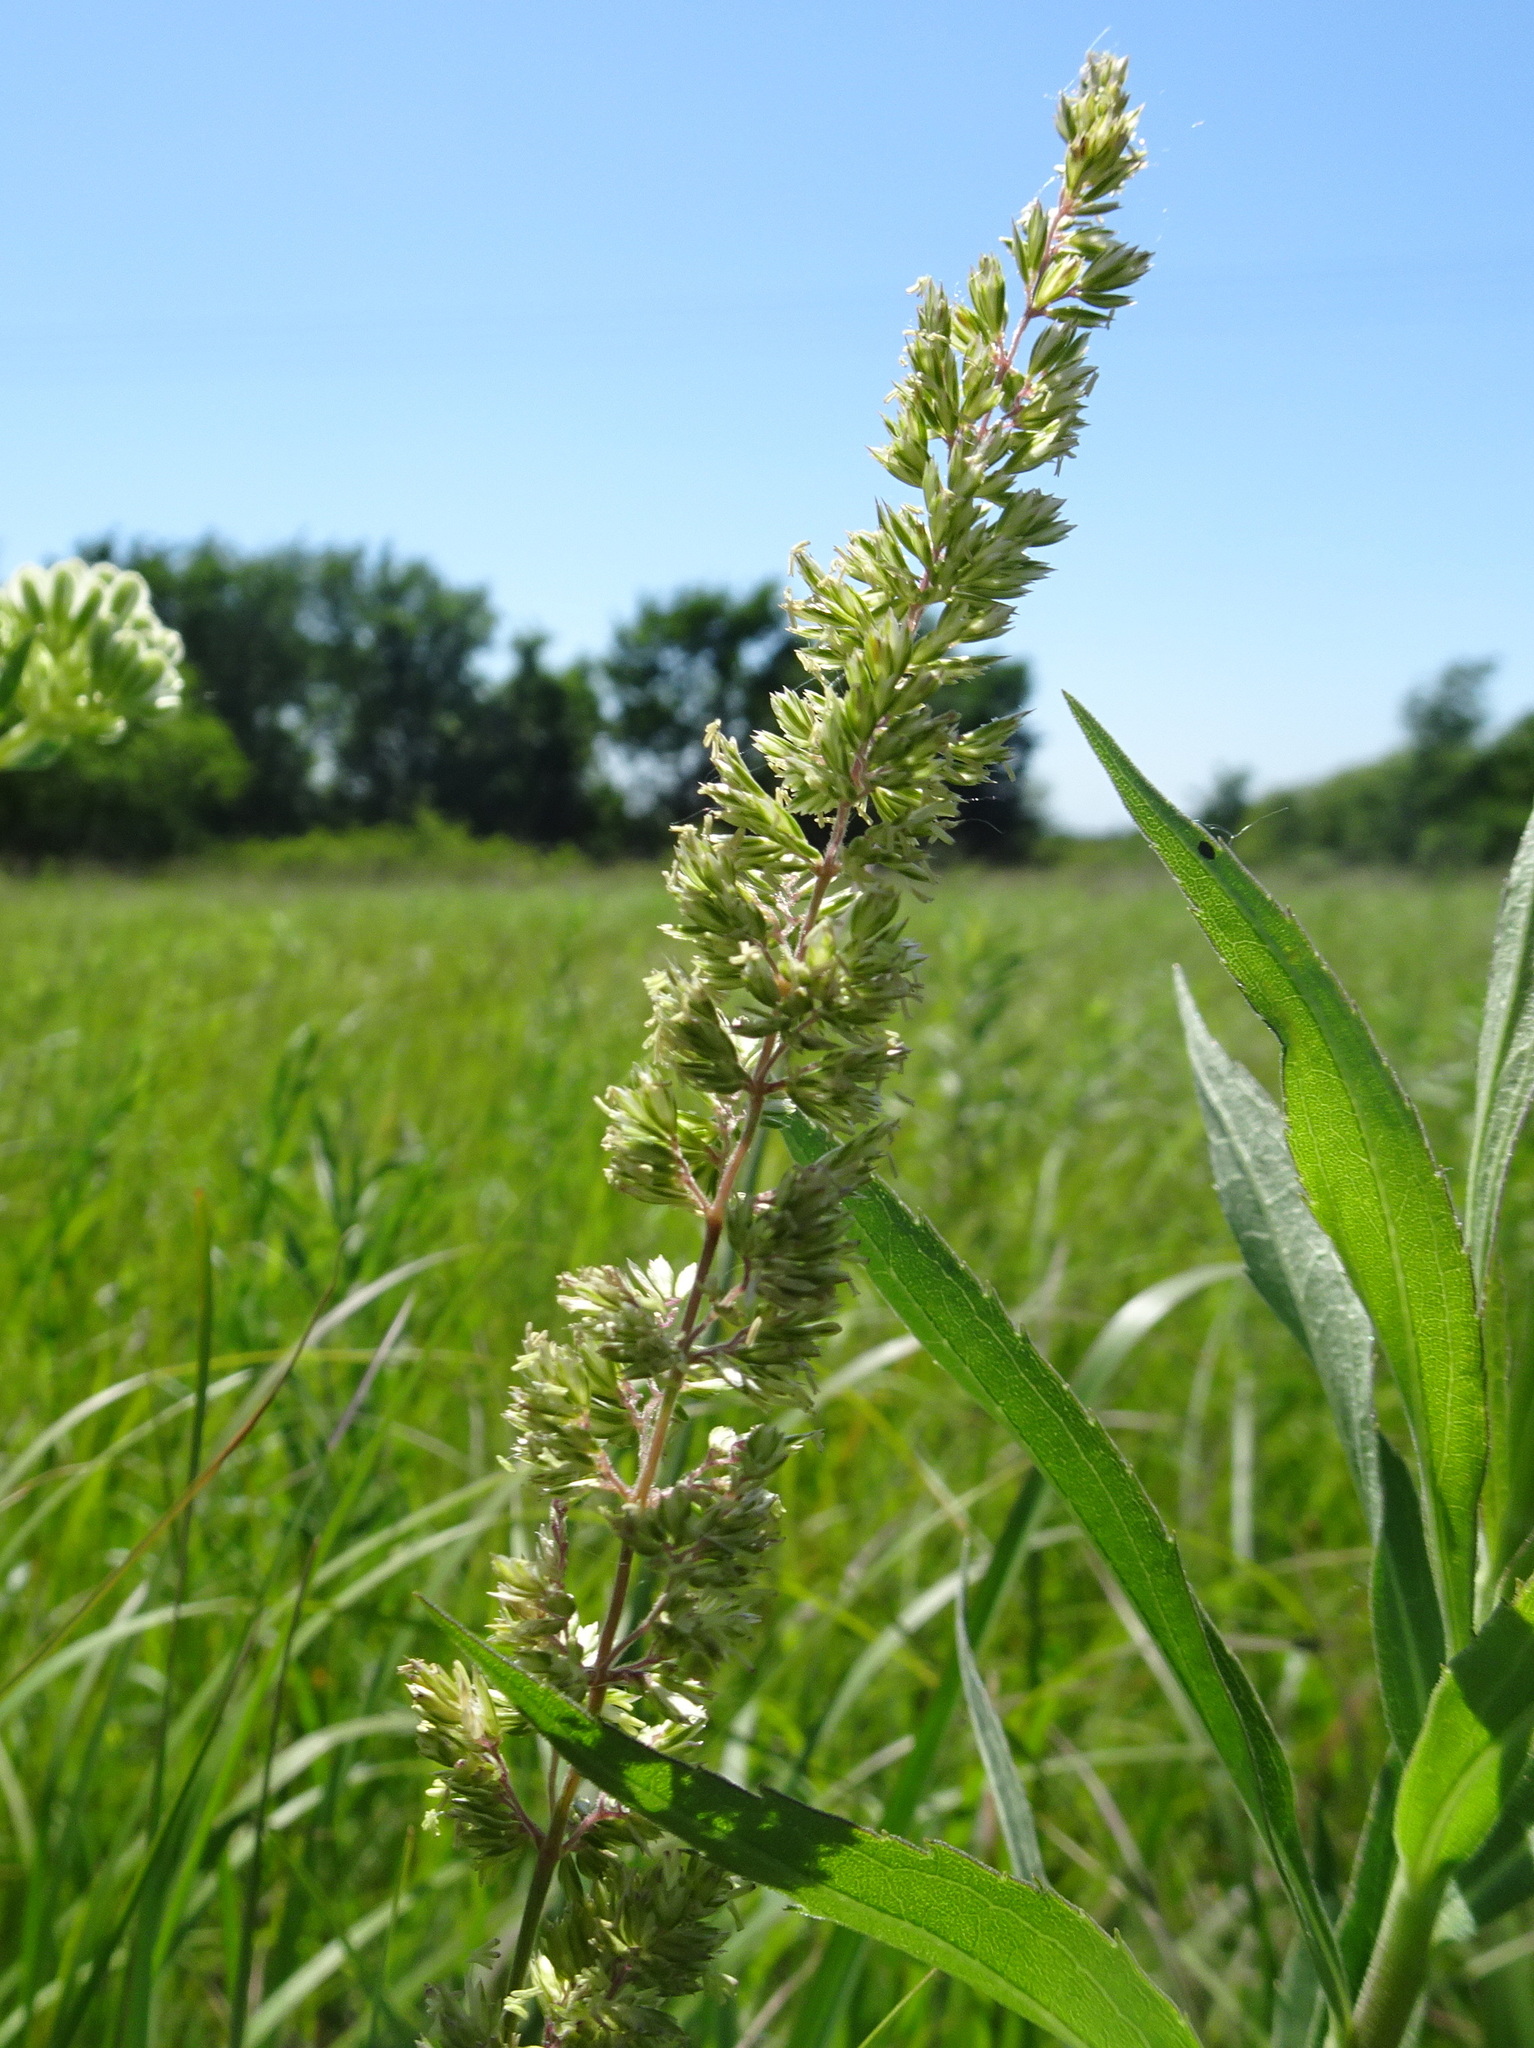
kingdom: Plantae
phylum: Tracheophyta
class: Liliopsida
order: Poales
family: Poaceae
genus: Koeleria
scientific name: Koeleria macrantha
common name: Crested hair-grass
